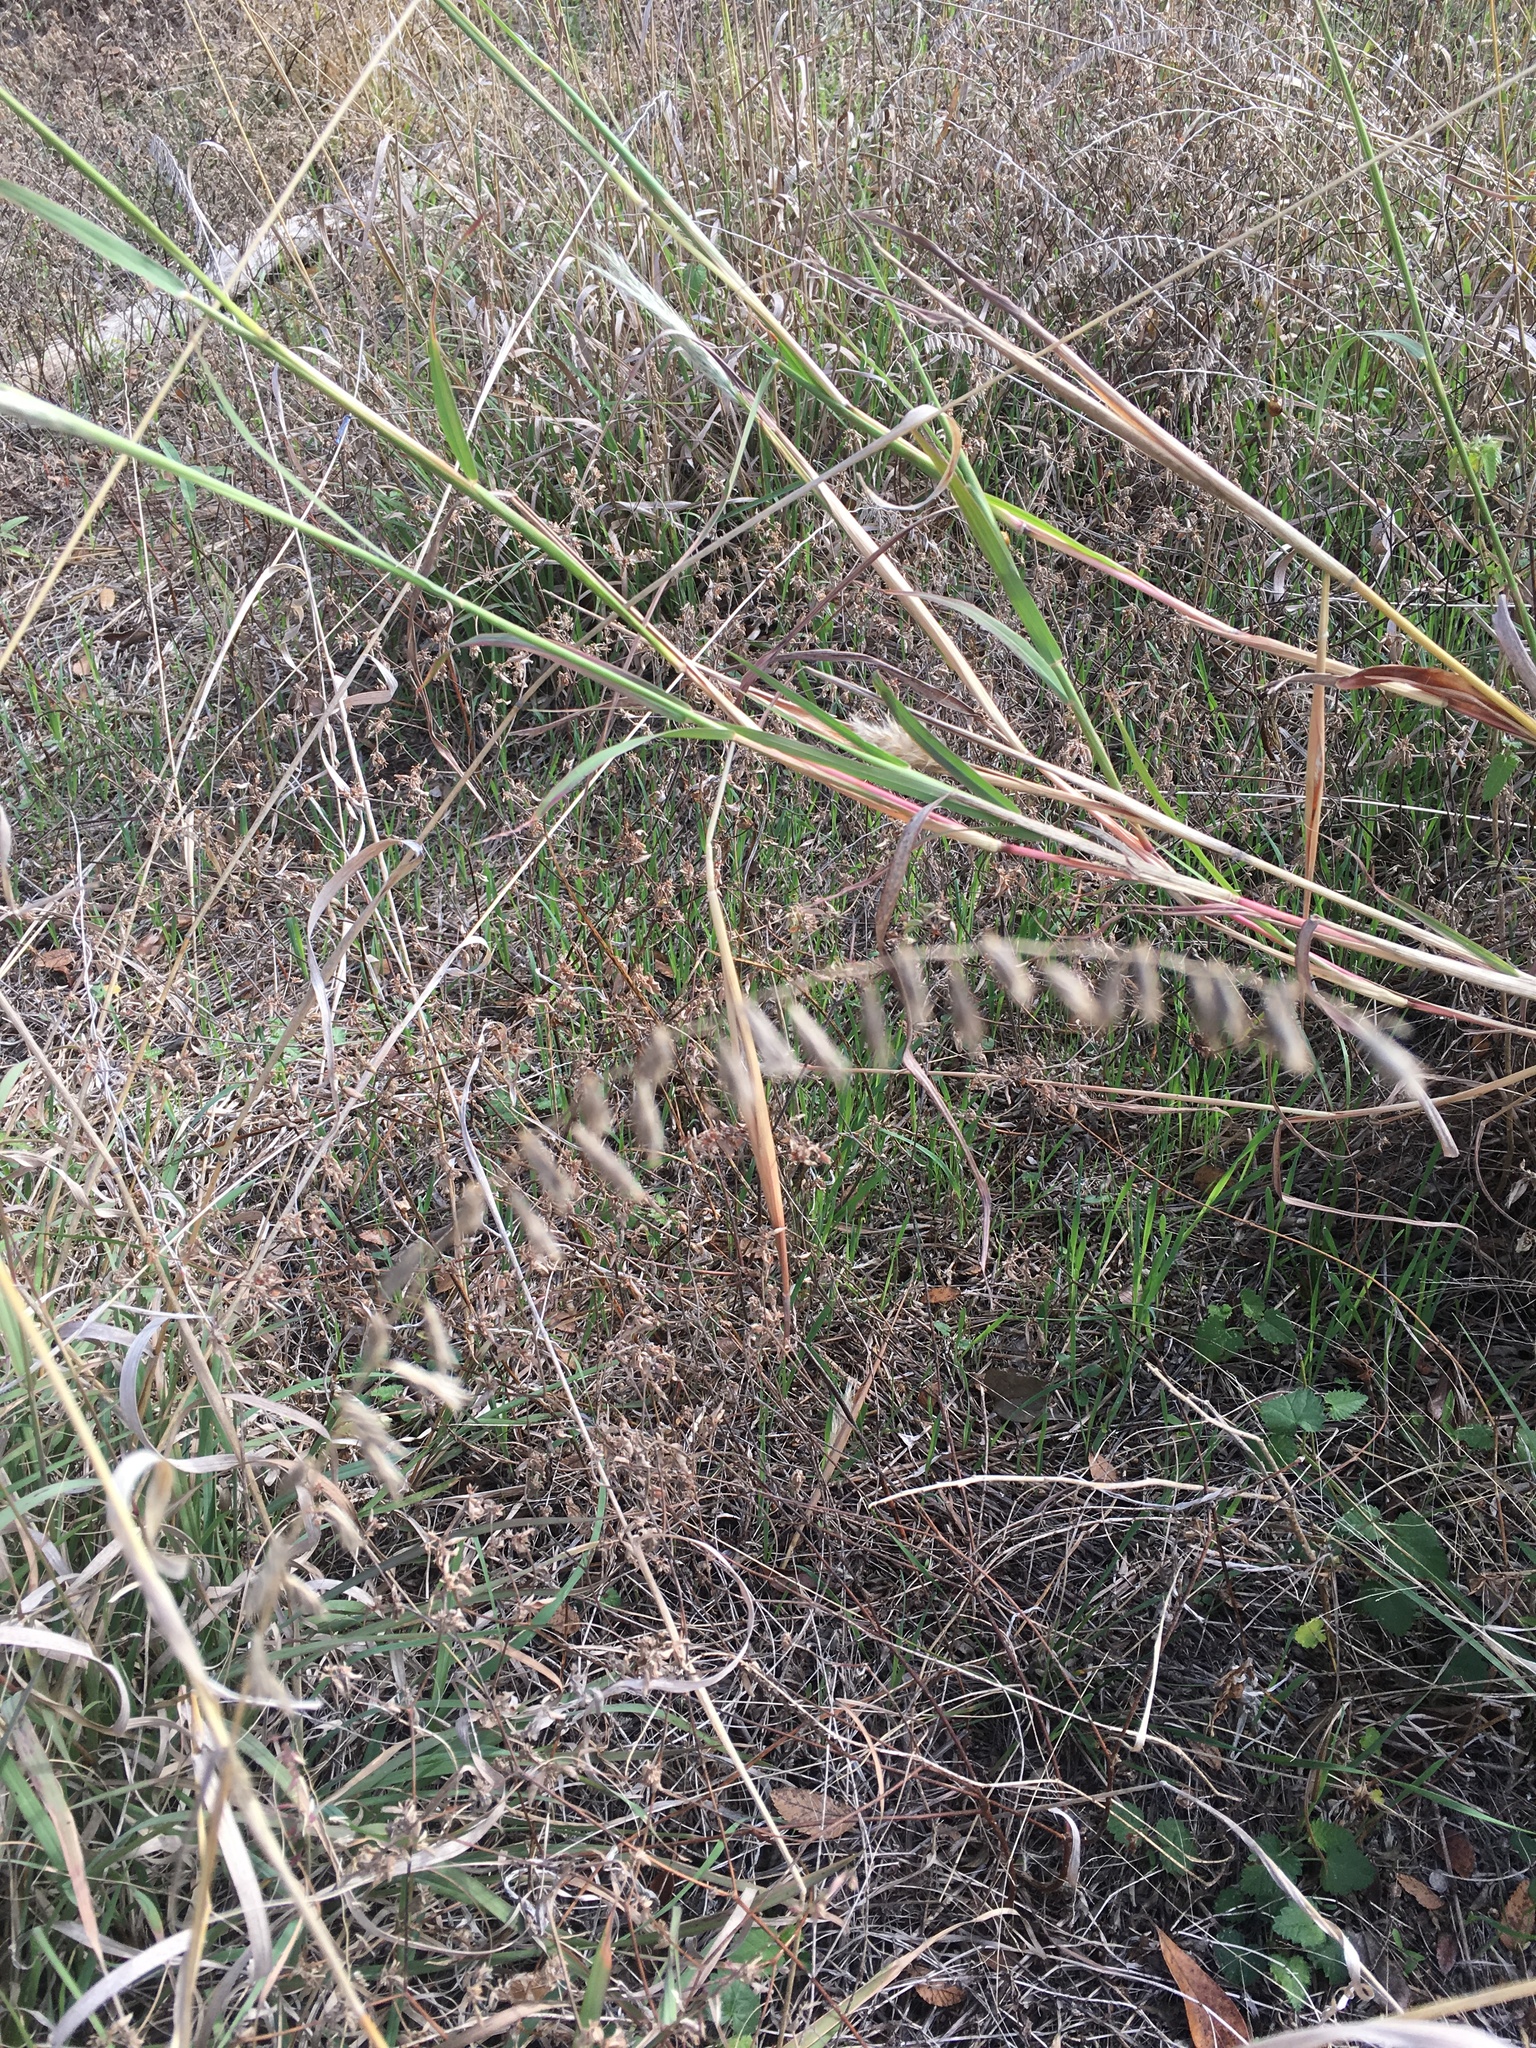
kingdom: Plantae
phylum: Tracheophyta
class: Liliopsida
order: Poales
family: Poaceae
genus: Bouteloua
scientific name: Bouteloua curtipendula
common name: Side-oats grama
